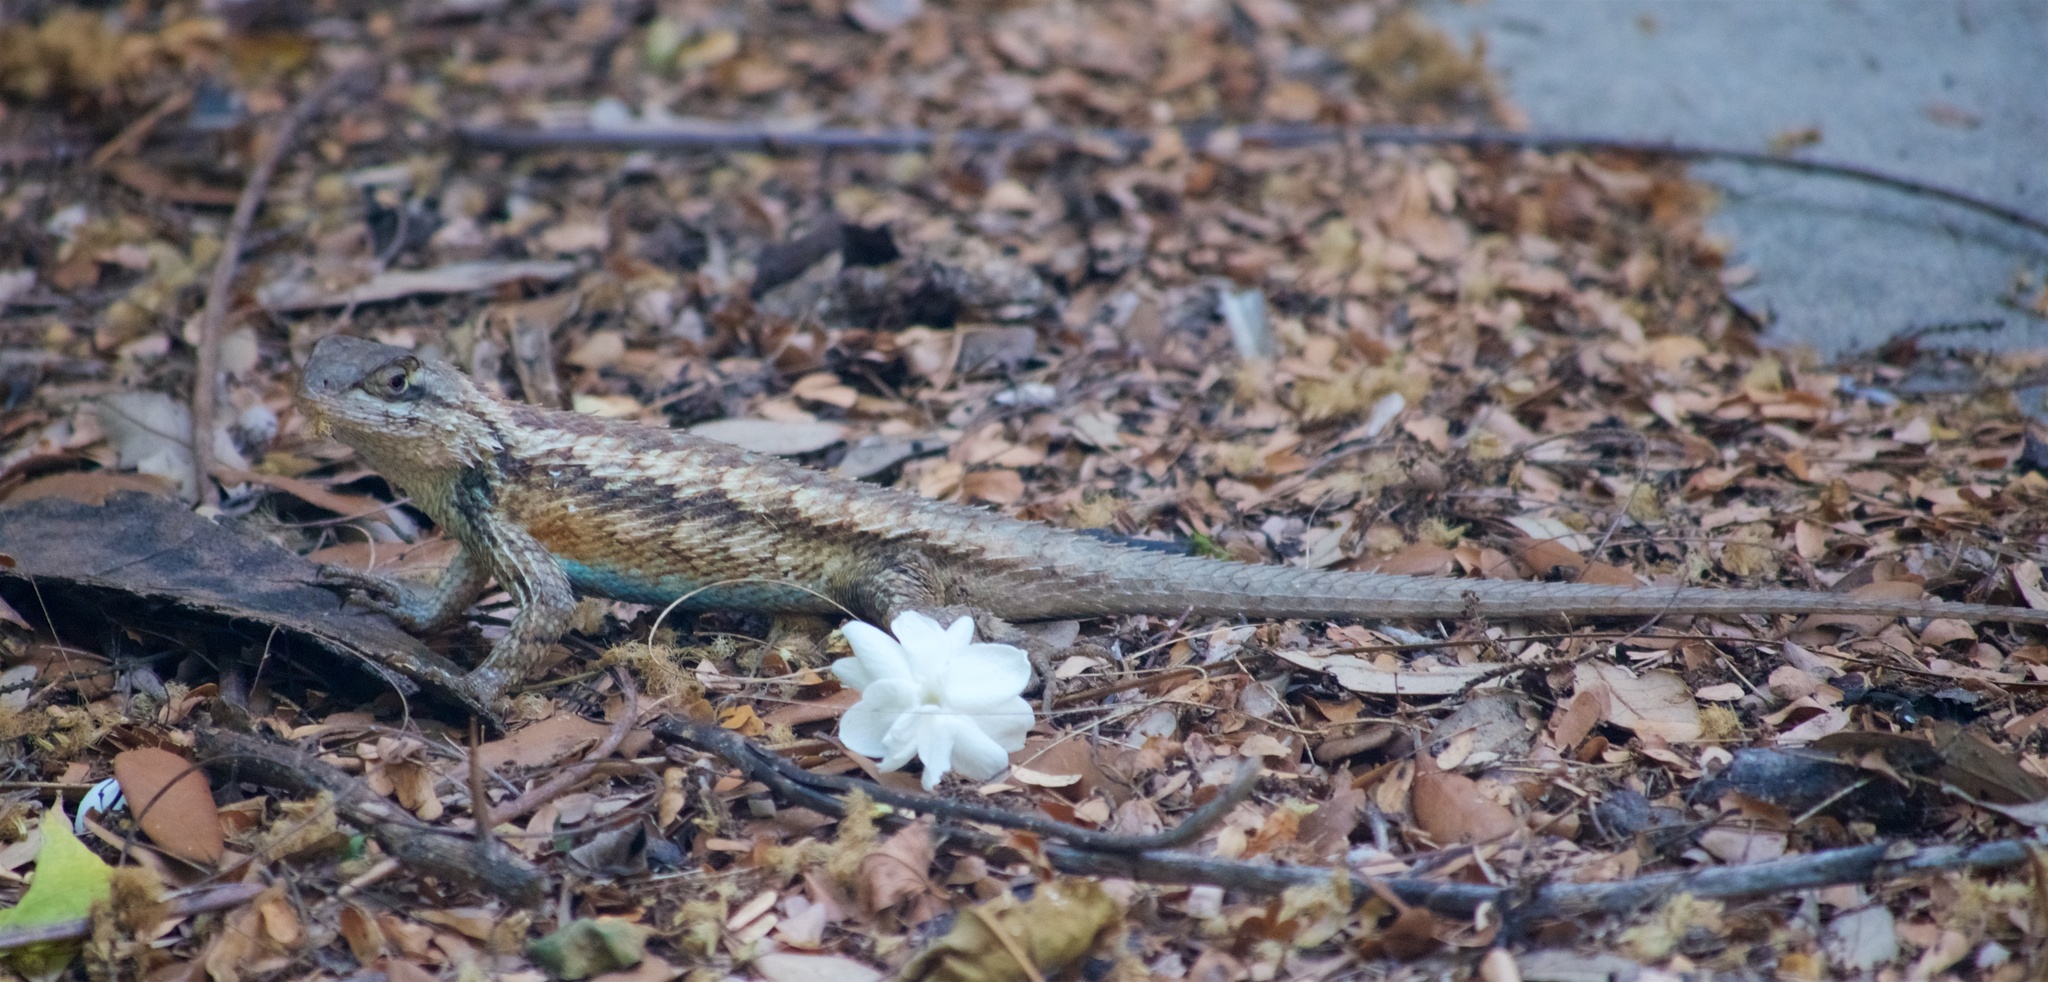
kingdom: Animalia
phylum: Chordata
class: Squamata
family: Phrynosomatidae
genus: Sceloporus
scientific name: Sceloporus olivaceus
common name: Texas spiny lizard
